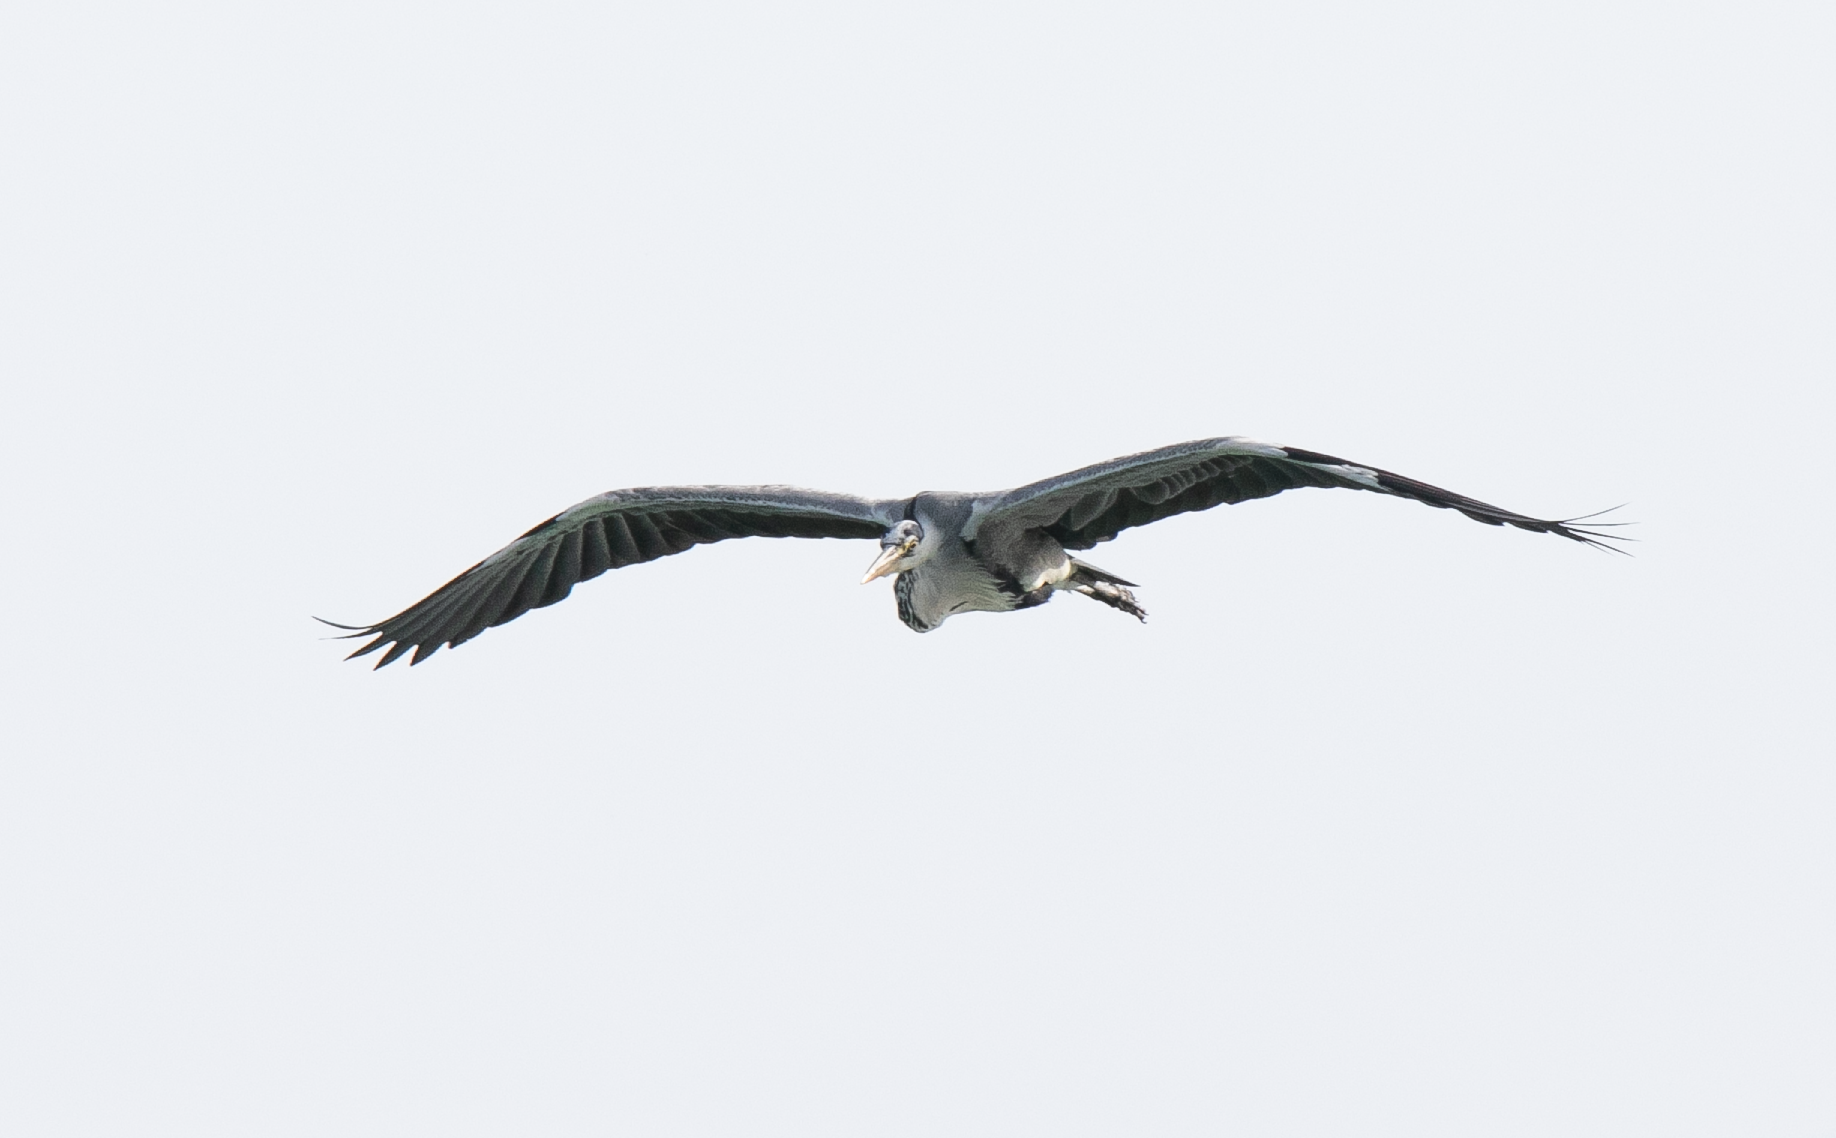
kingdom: Animalia
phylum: Chordata
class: Aves
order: Pelecaniformes
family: Ardeidae
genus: Ardea
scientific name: Ardea cinerea
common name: Grey heron
